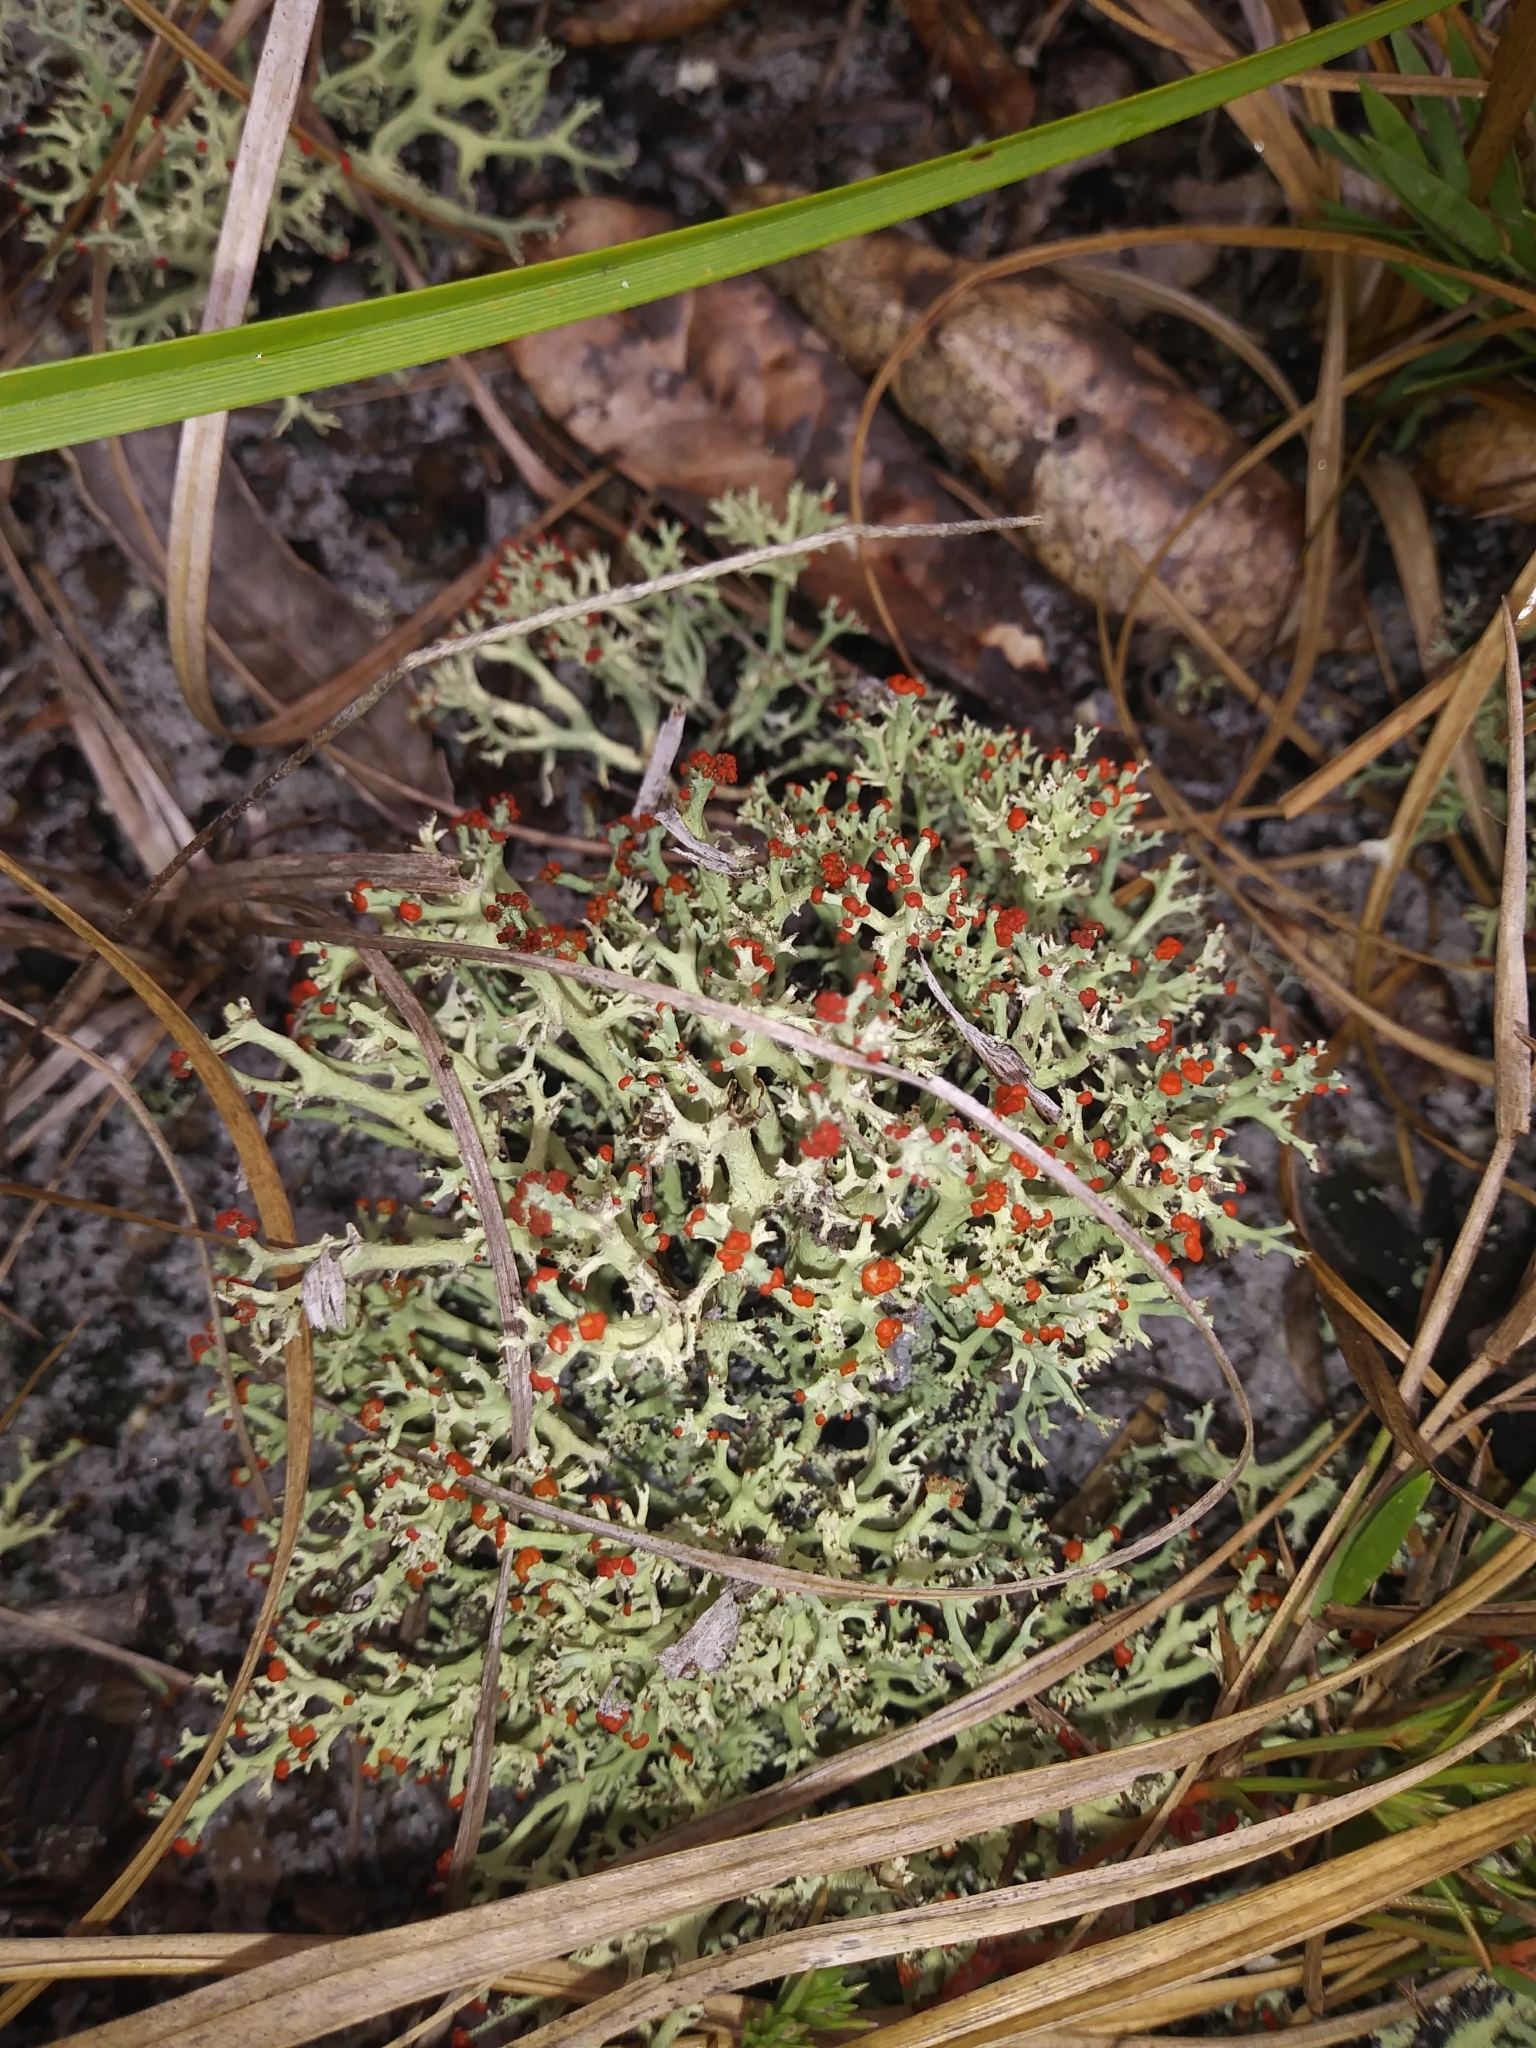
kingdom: Fungi
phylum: Ascomycota
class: Lecanoromycetes
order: Lecanorales
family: Cladoniaceae
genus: Cladonia
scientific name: Cladonia leporina
